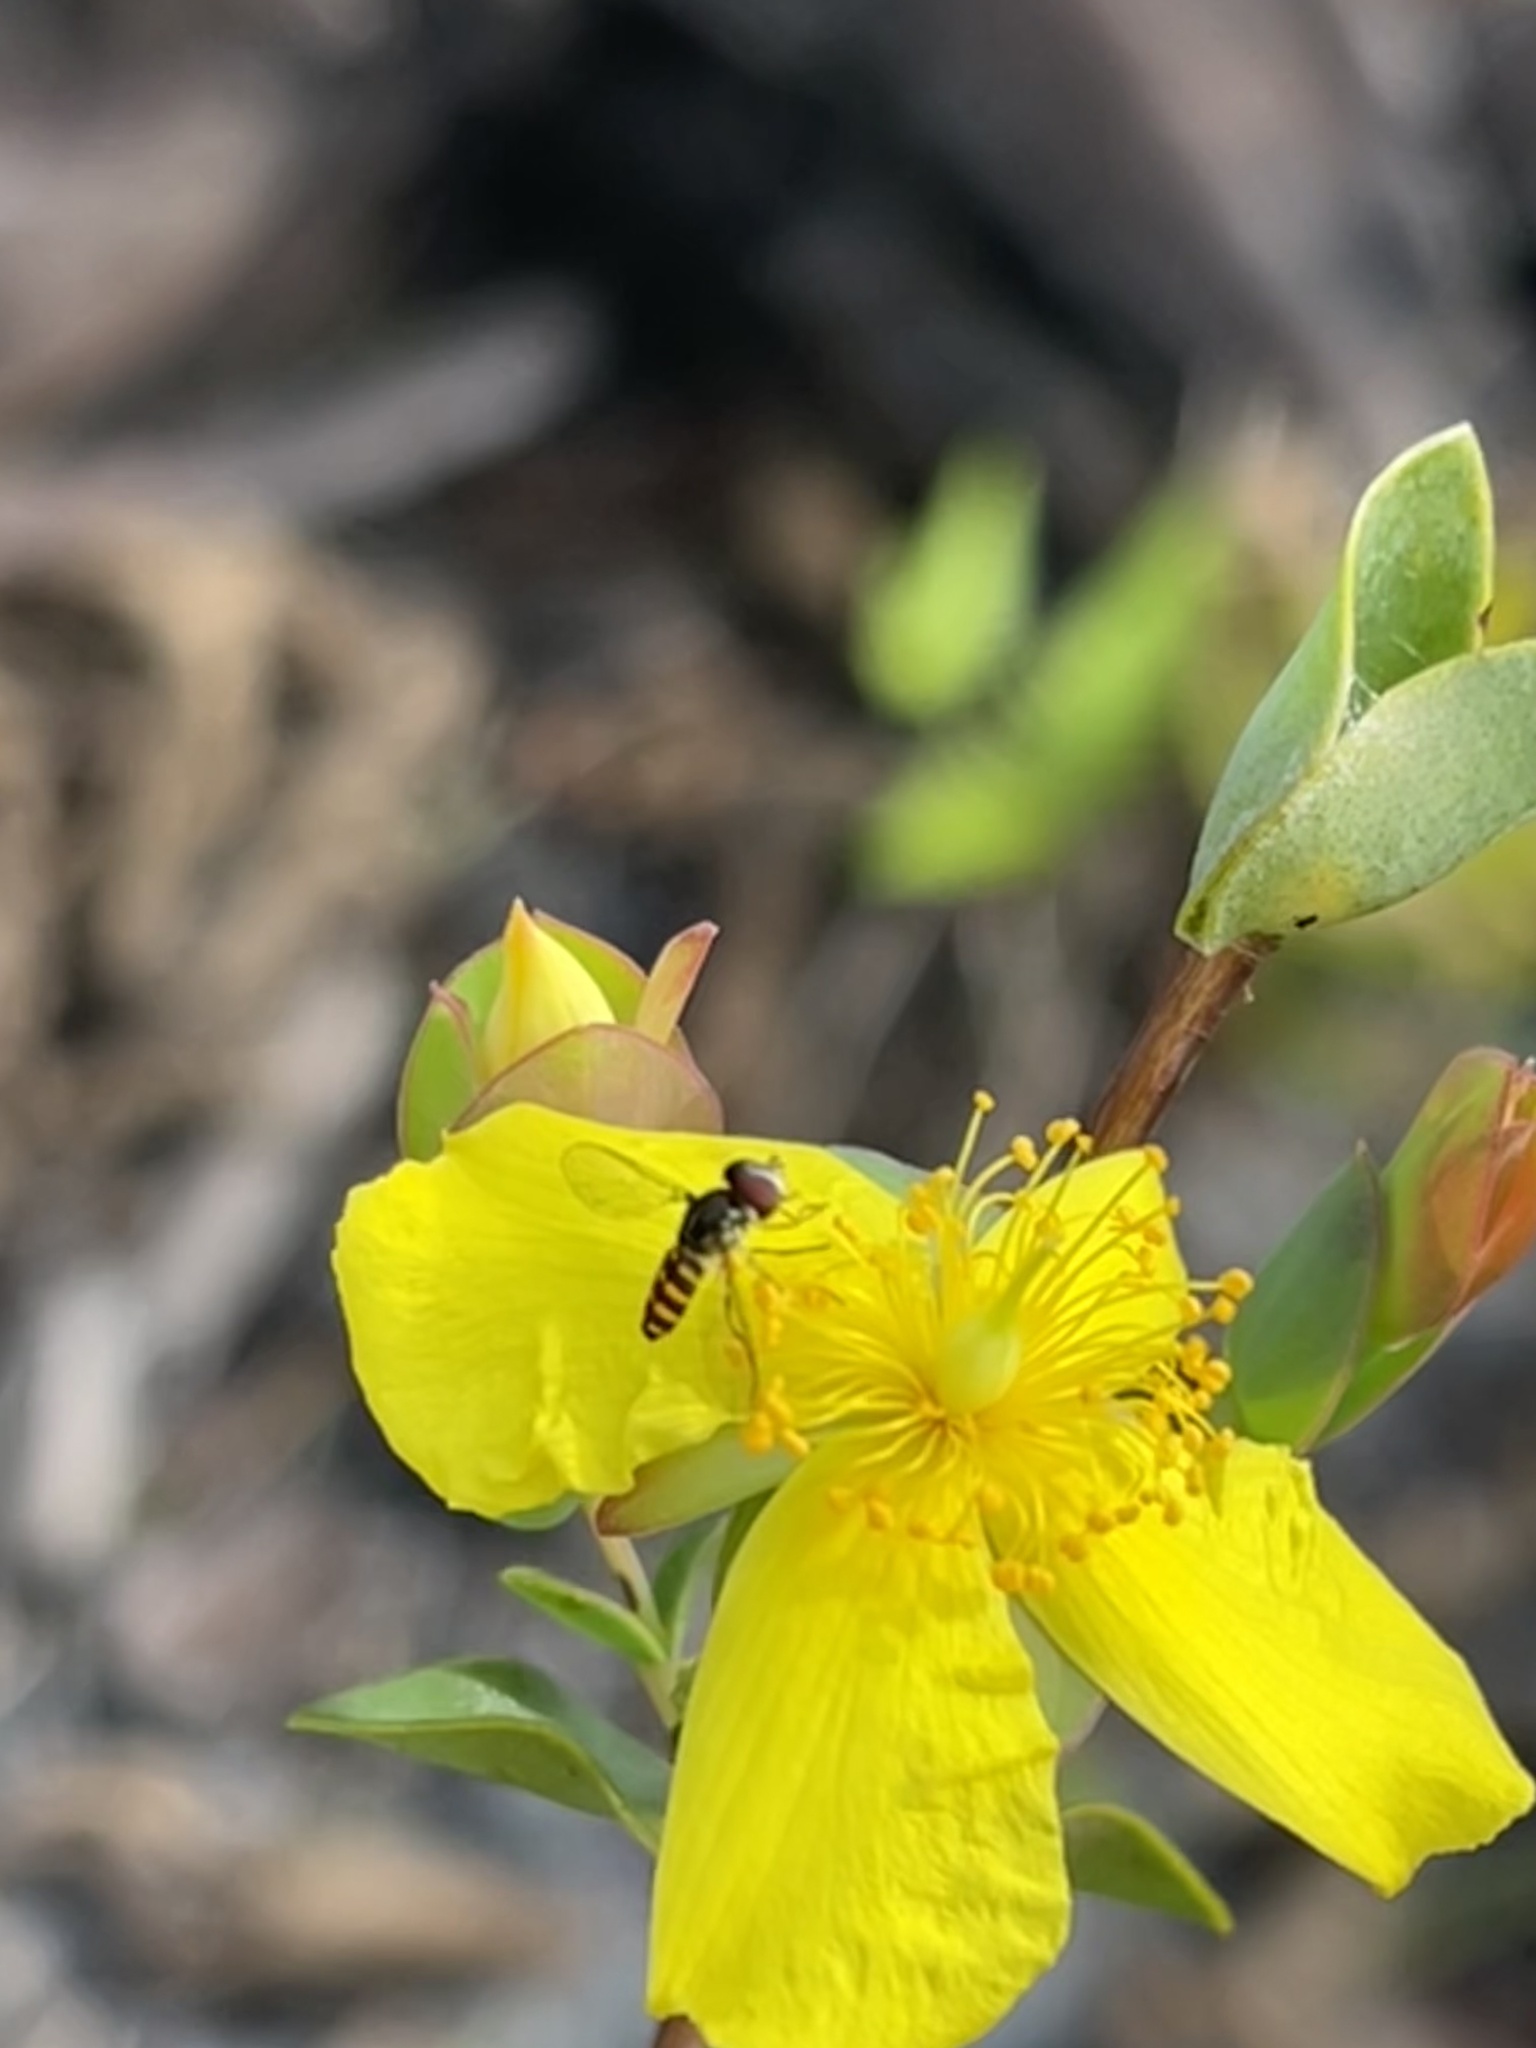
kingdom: Animalia
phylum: Arthropoda
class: Insecta
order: Diptera
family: Syrphidae
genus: Toxomerus
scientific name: Toxomerus verticalis
